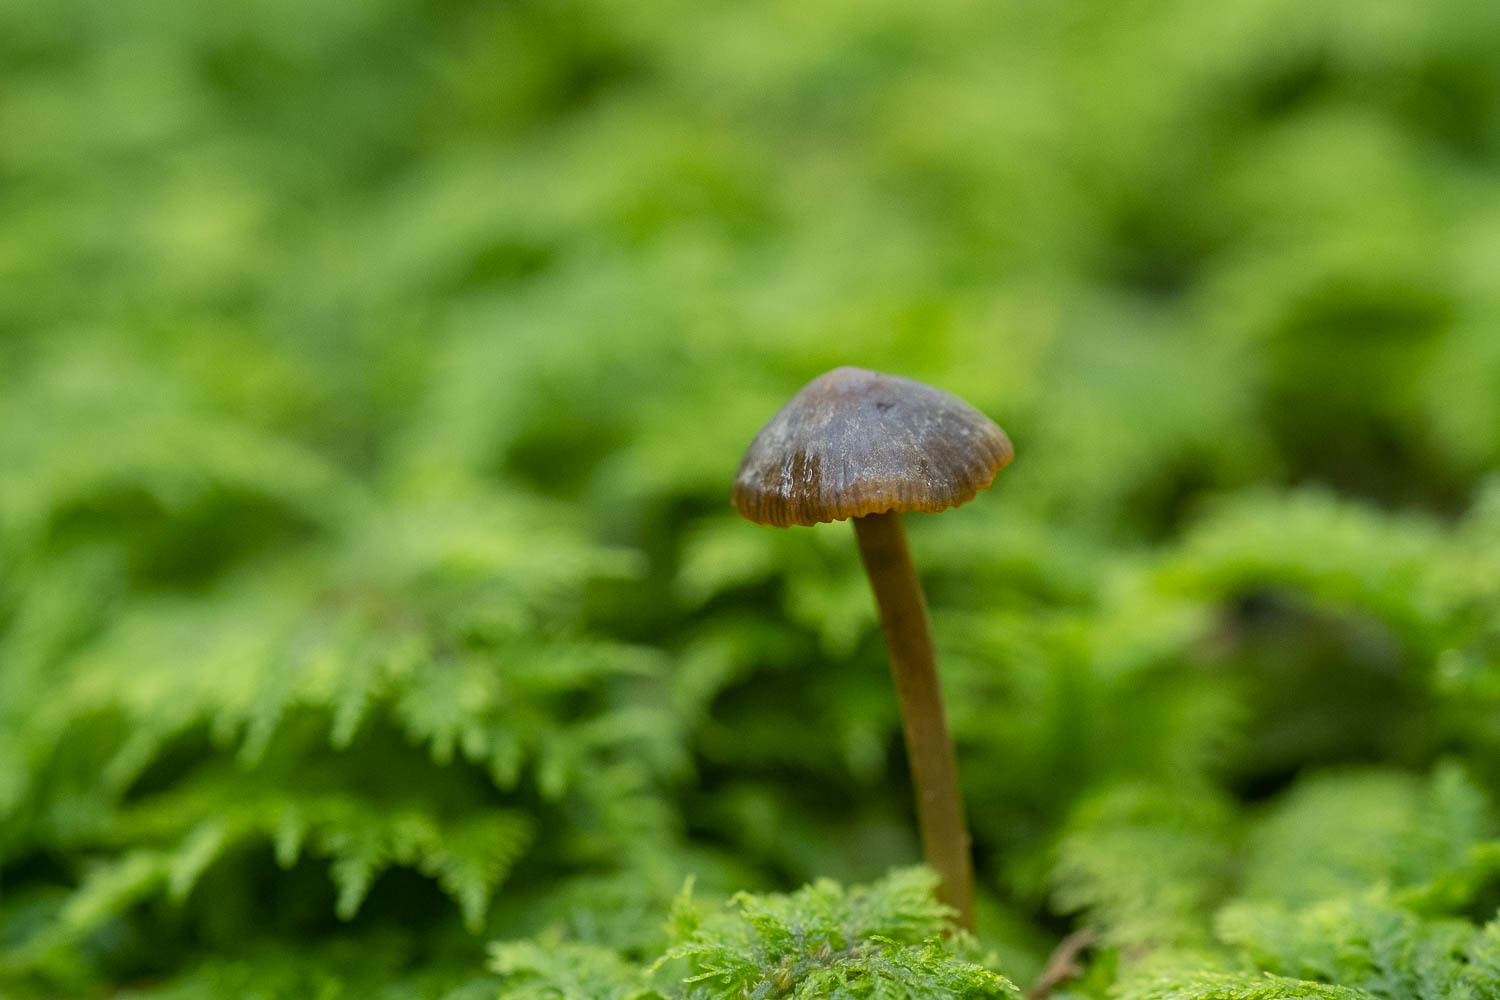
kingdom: Fungi
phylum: Basidiomycota
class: Agaricomycetes
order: Agaricales
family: Mycenaceae
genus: Mycena
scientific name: Mycena aurantiomarginata
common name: Golden edge bonnet
